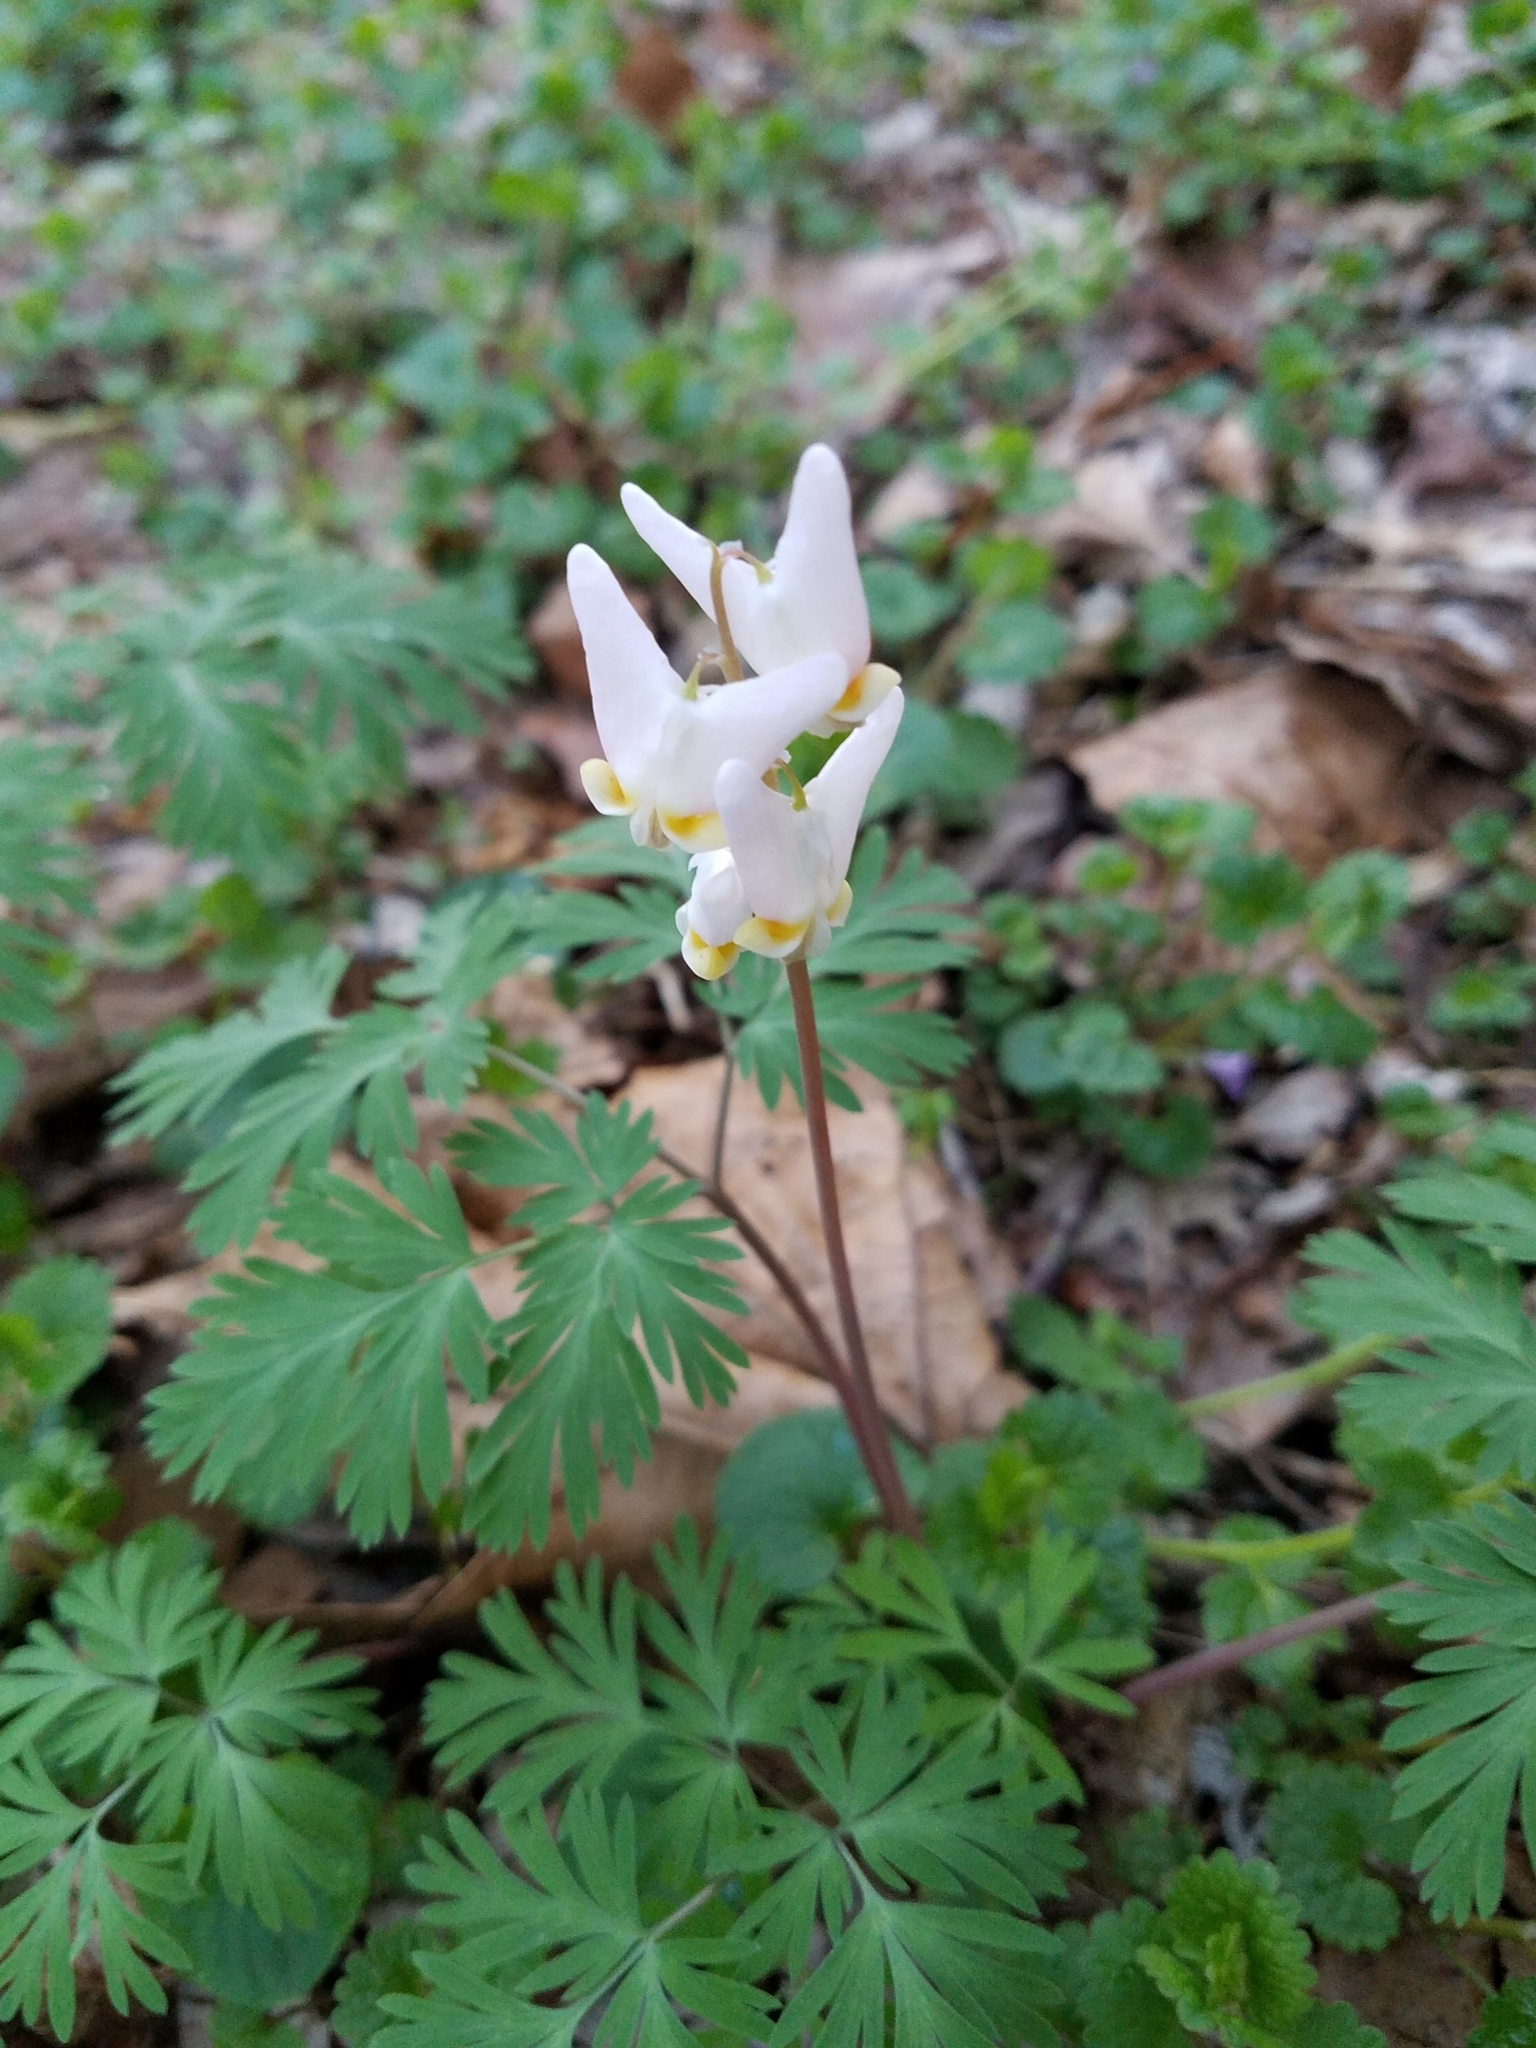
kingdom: Plantae
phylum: Tracheophyta
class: Magnoliopsida
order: Ranunculales
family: Papaveraceae
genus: Dicentra
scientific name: Dicentra cucullaria
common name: Dutchman's breeches
